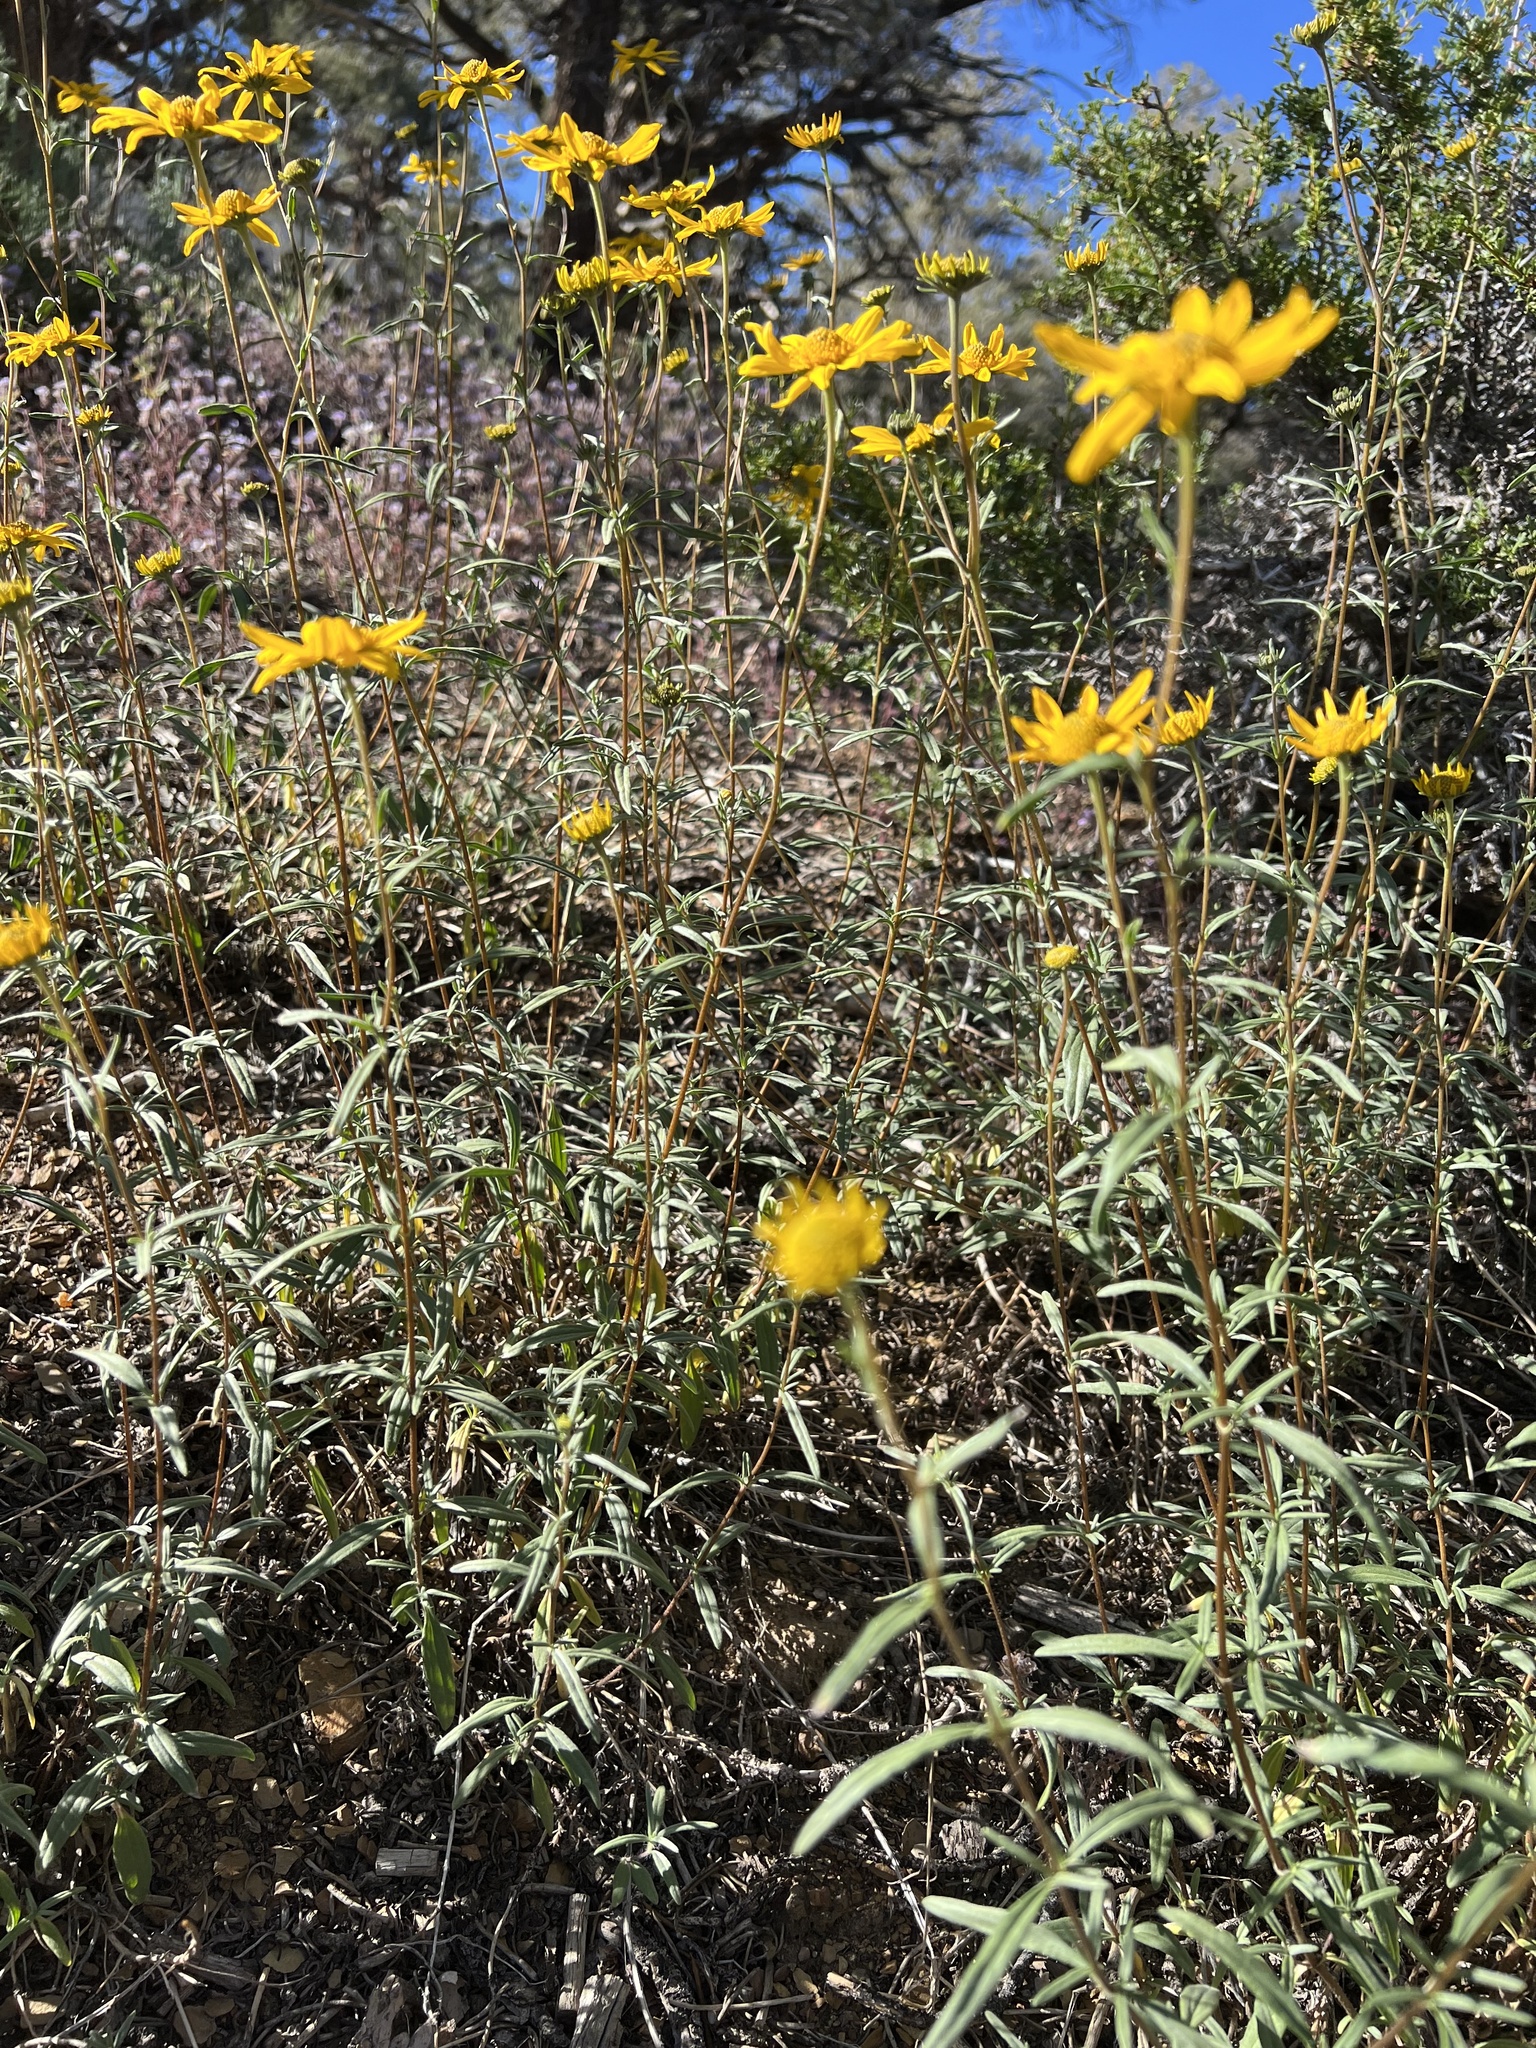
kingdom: Plantae
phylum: Tracheophyta
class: Magnoliopsida
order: Asterales
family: Asteraceae
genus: Heliomeris
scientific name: Heliomeris multiflora
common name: Showy goldeneye
